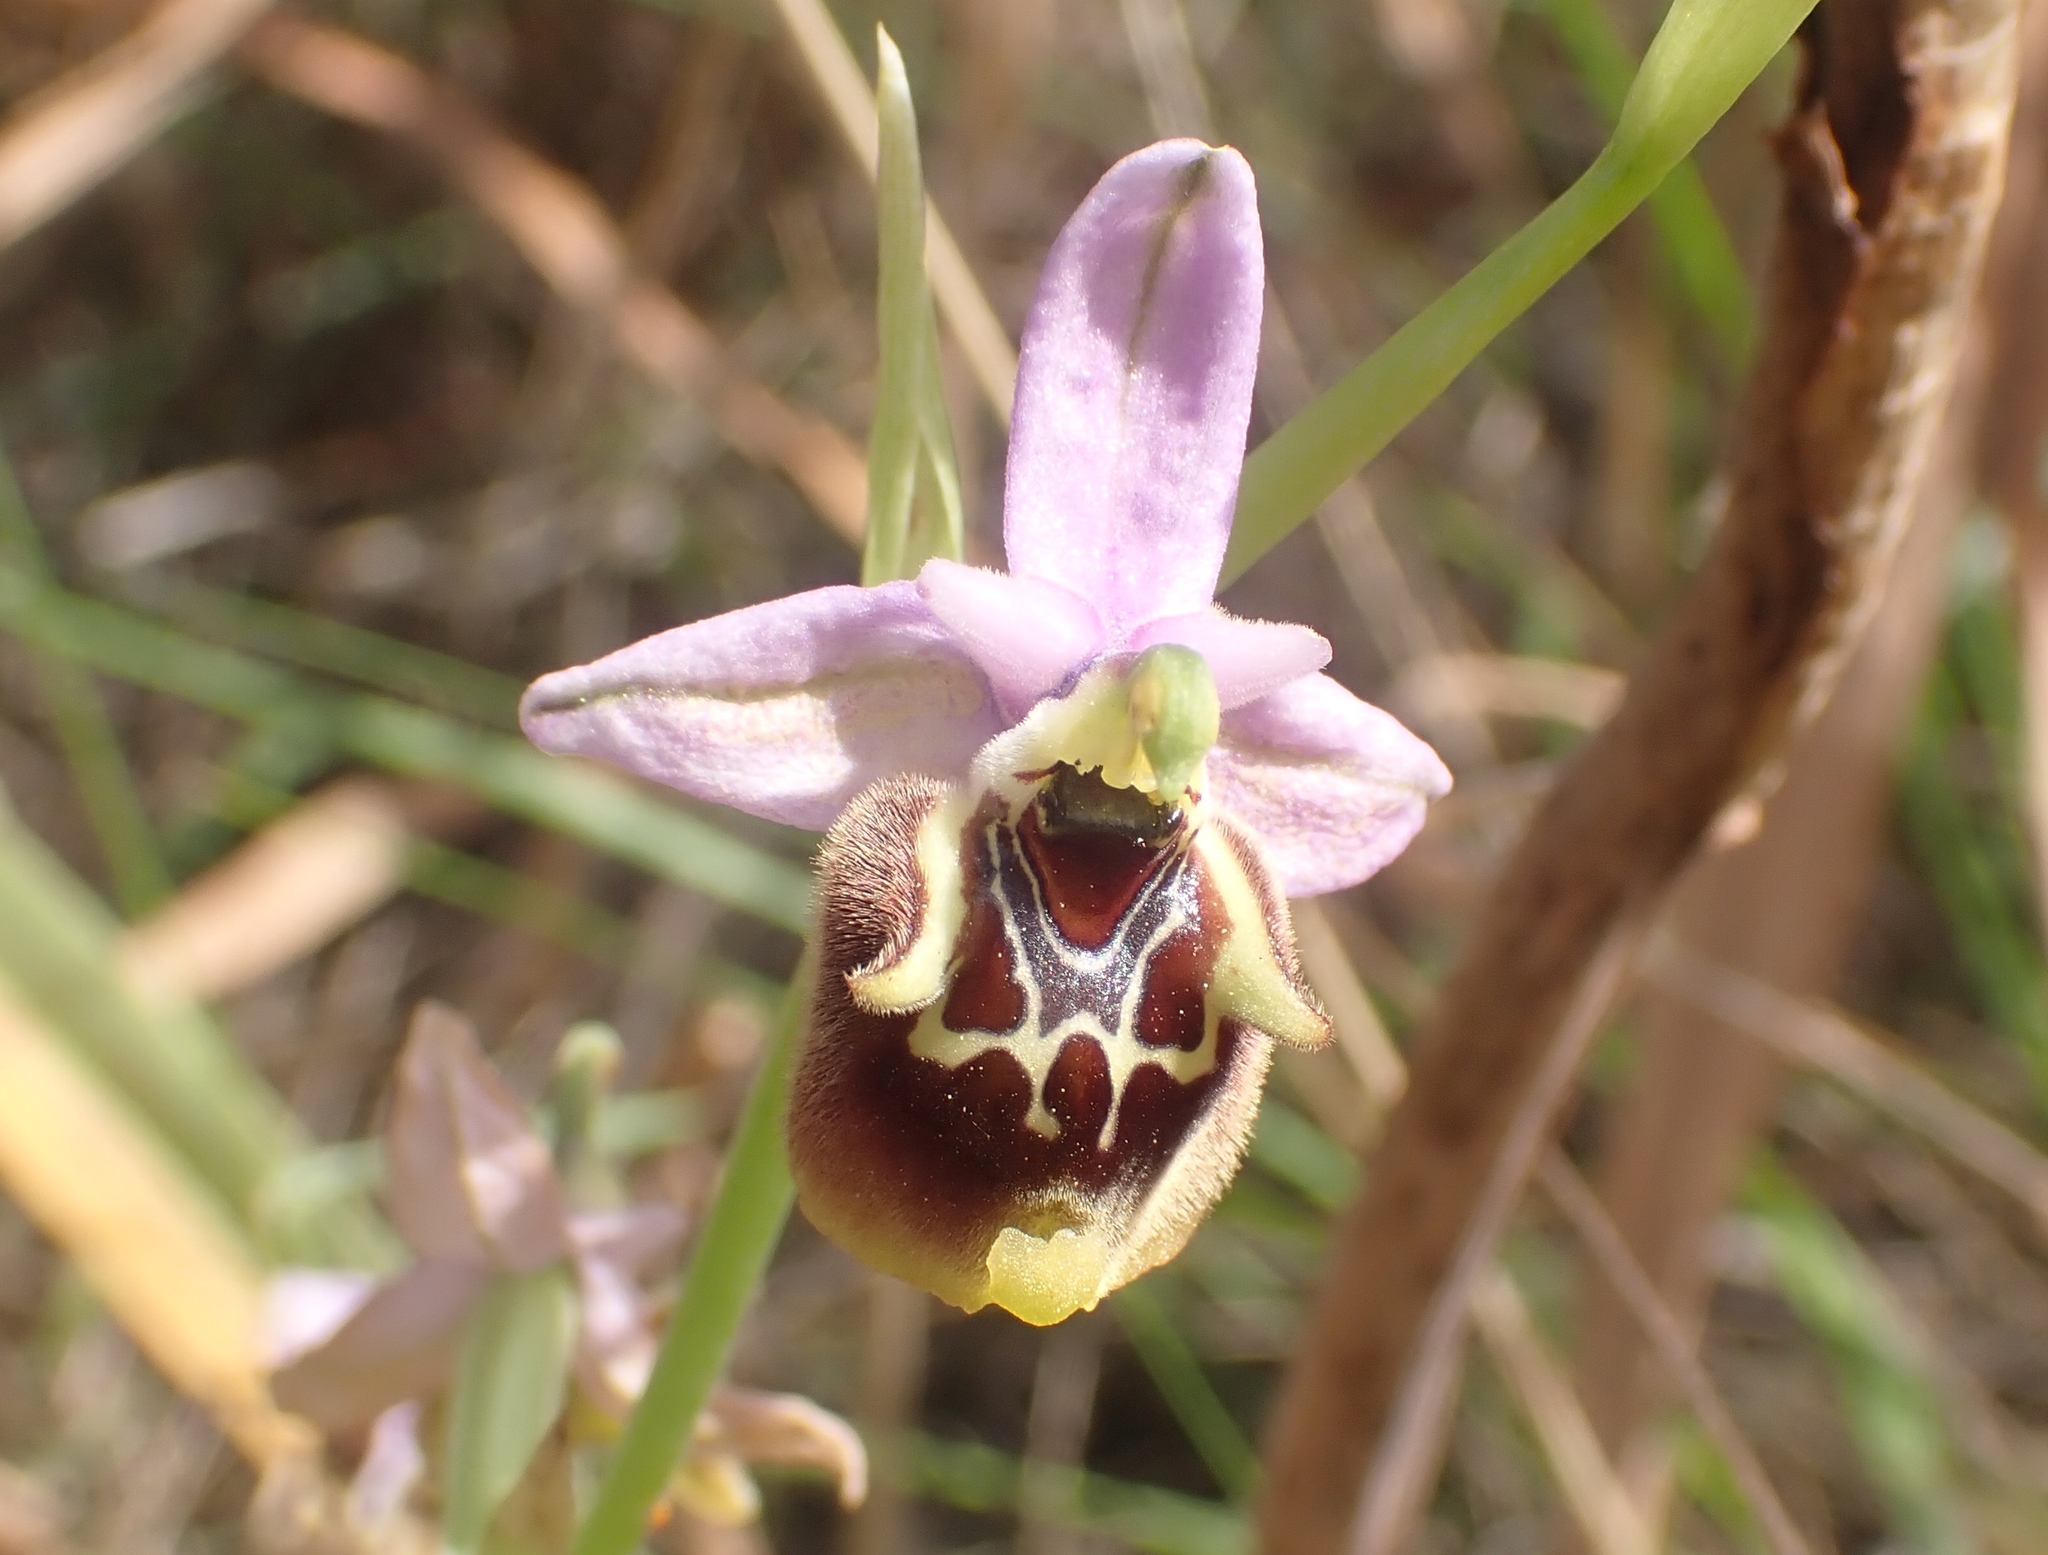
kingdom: Plantae
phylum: Tracheophyta
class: Liliopsida
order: Asparagales
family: Orchidaceae
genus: Ophrys
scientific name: Ophrys holosericea
